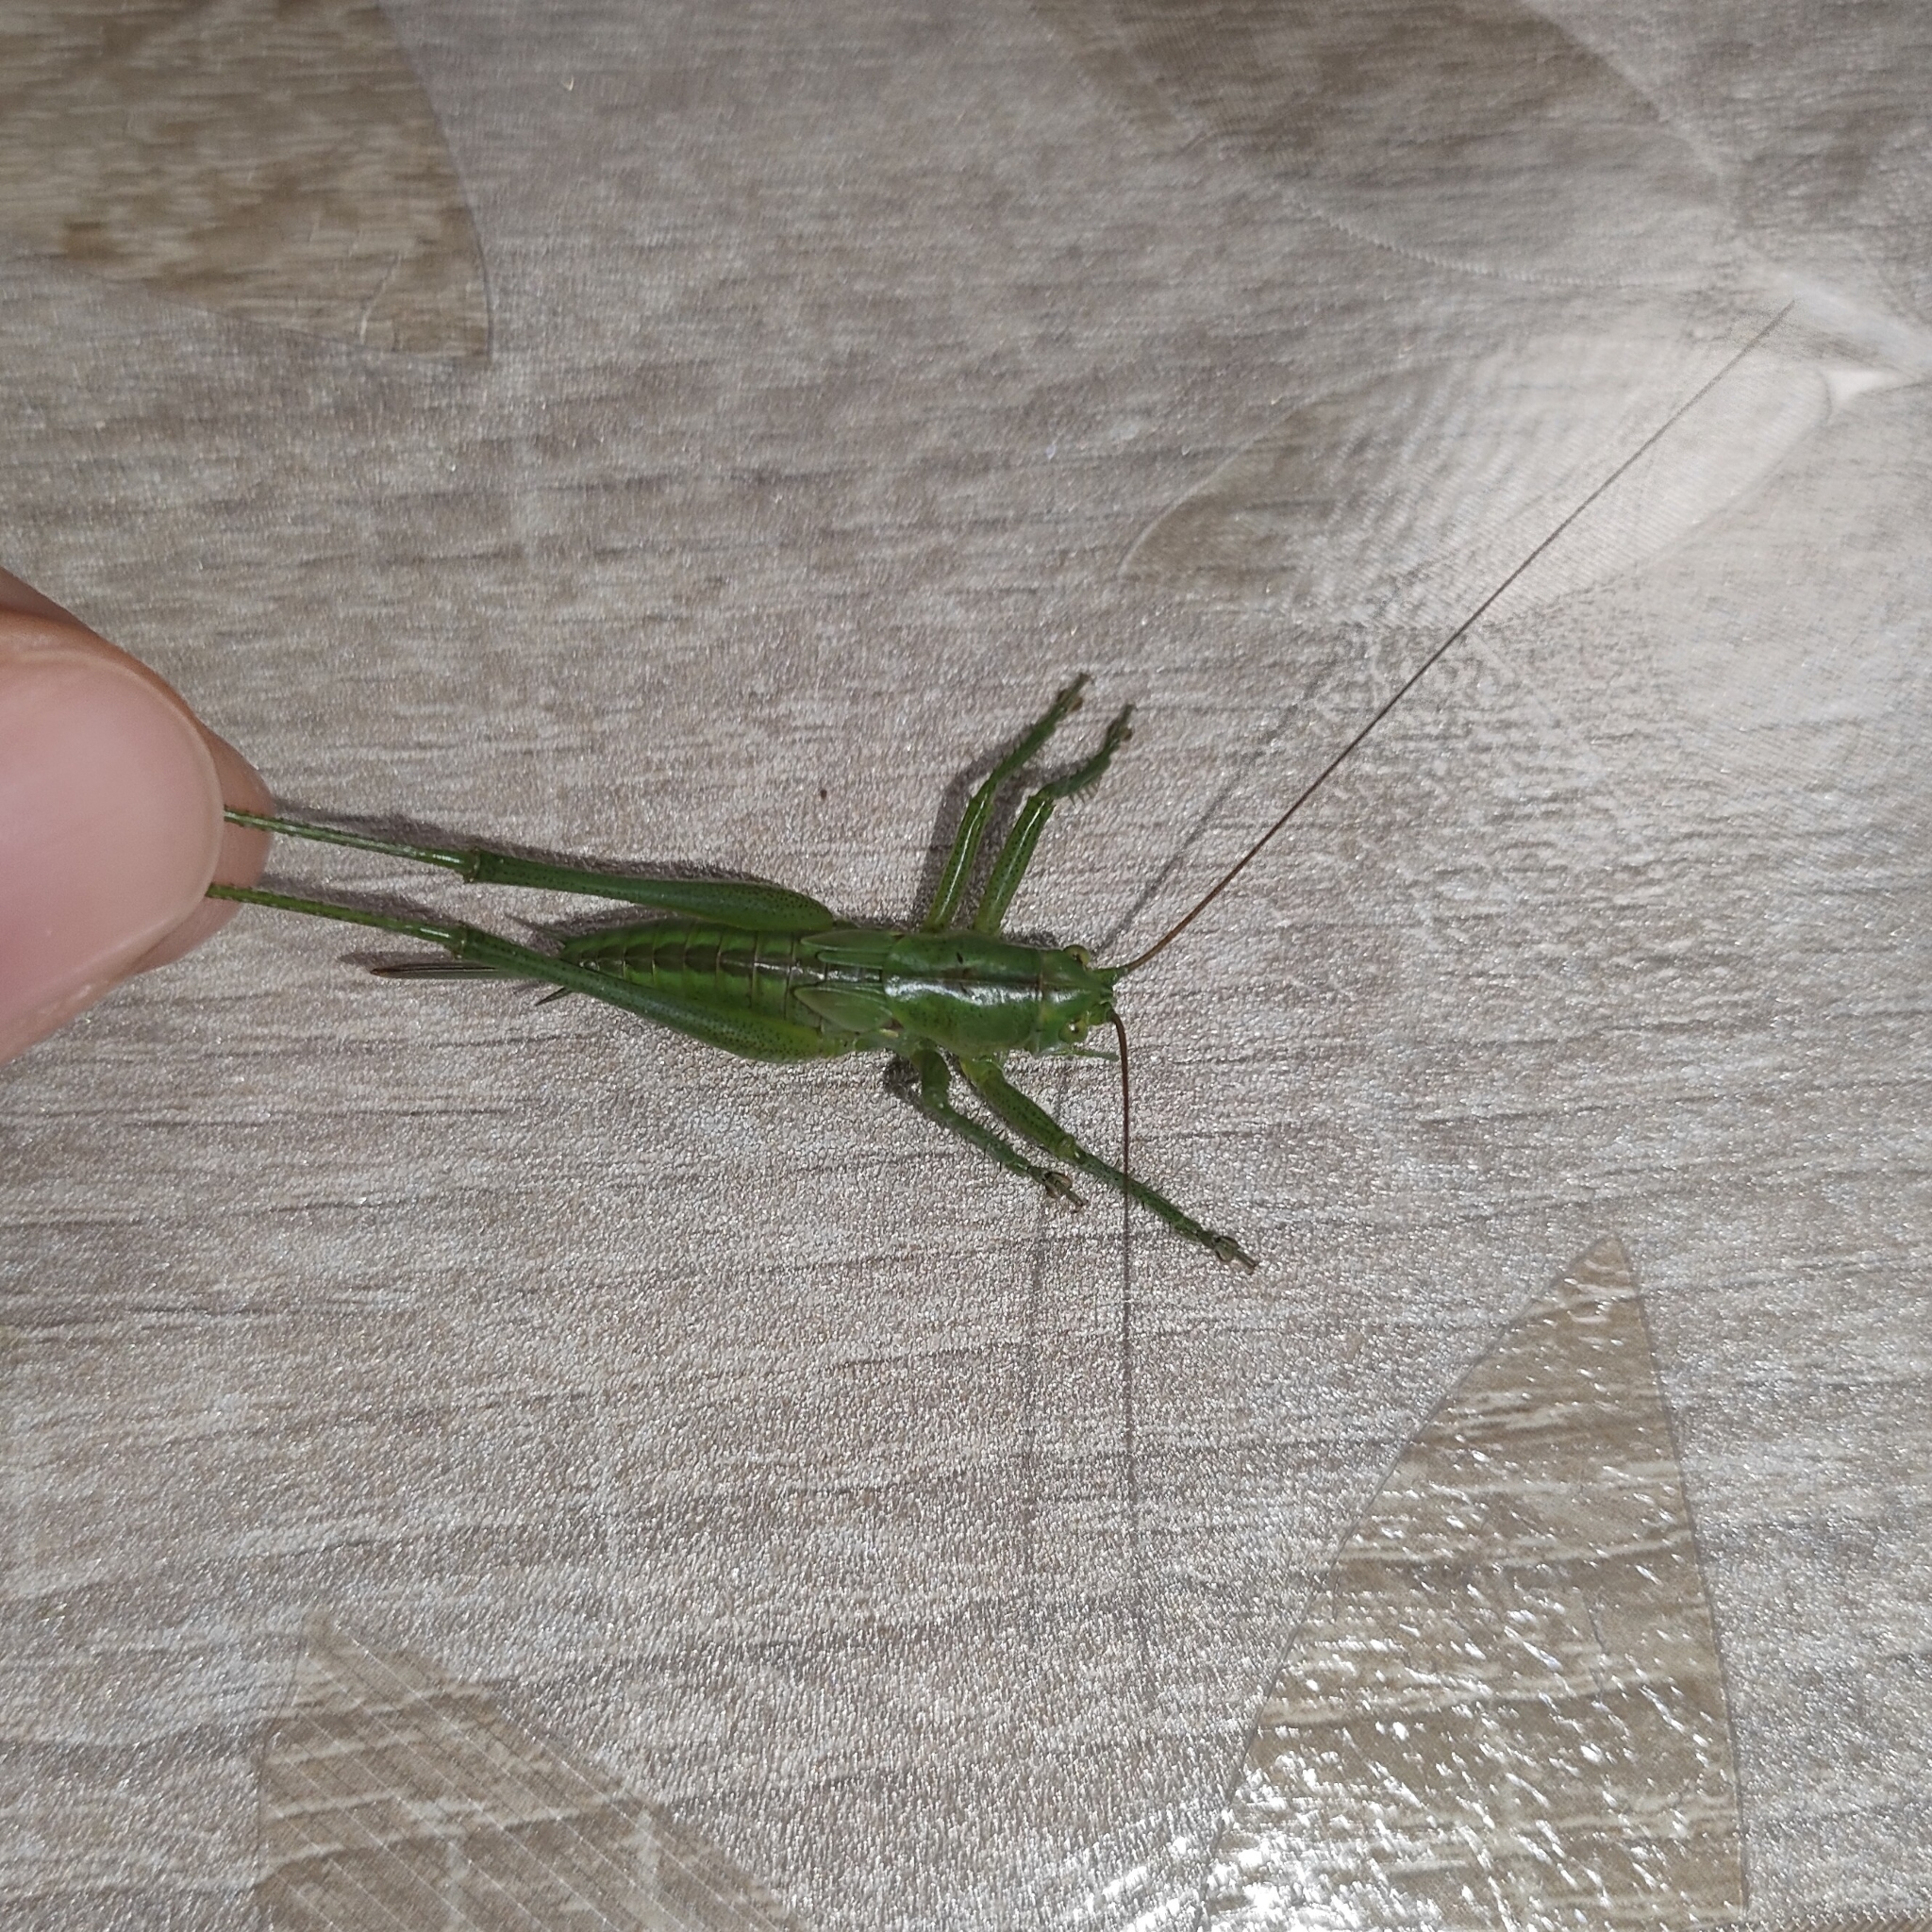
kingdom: Animalia
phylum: Arthropoda
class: Insecta
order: Orthoptera
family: Tettigoniidae
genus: Tettigonia
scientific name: Tettigonia viridissima
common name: Great green bush-cricket
